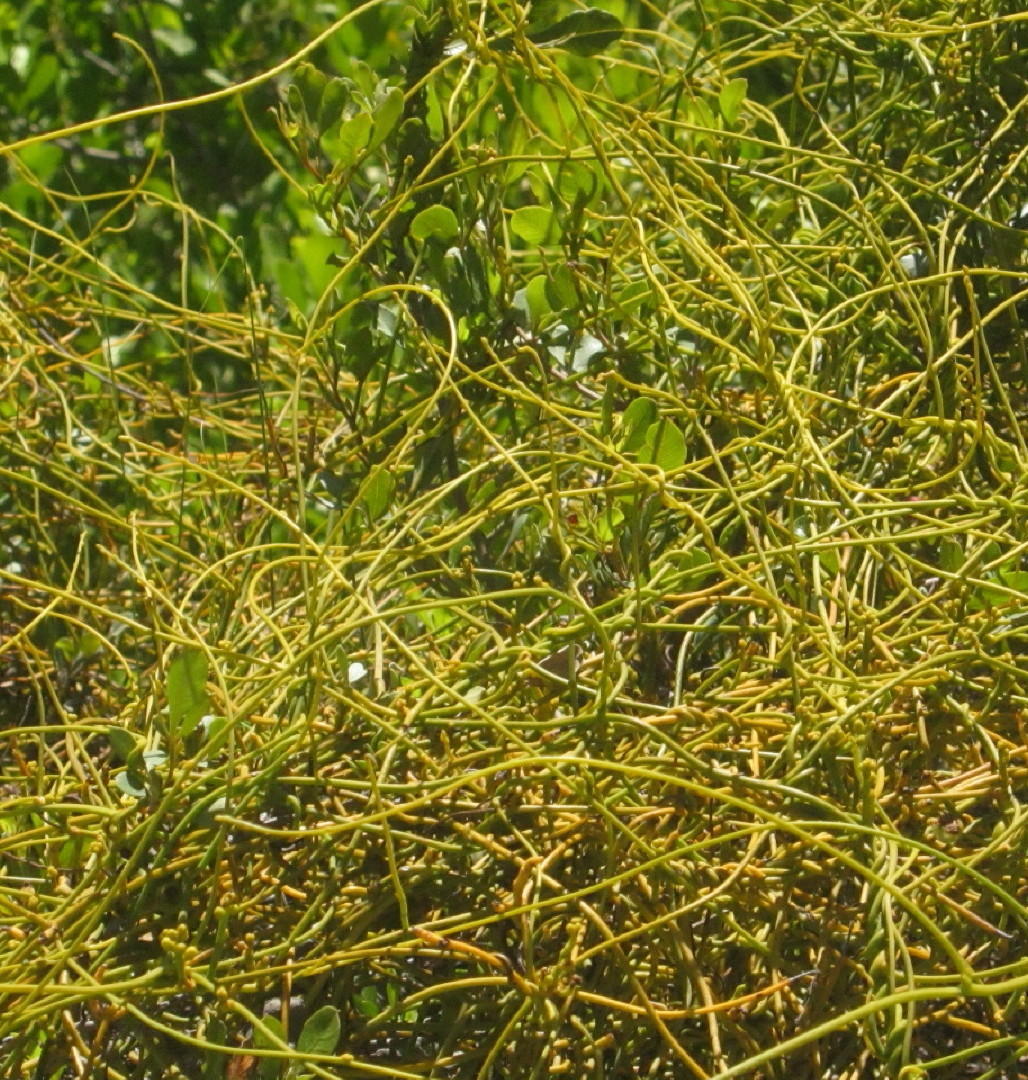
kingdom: Plantae
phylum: Tracheophyta
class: Magnoliopsida
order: Laurales
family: Lauraceae
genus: Cassytha
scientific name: Cassytha ciliolata
